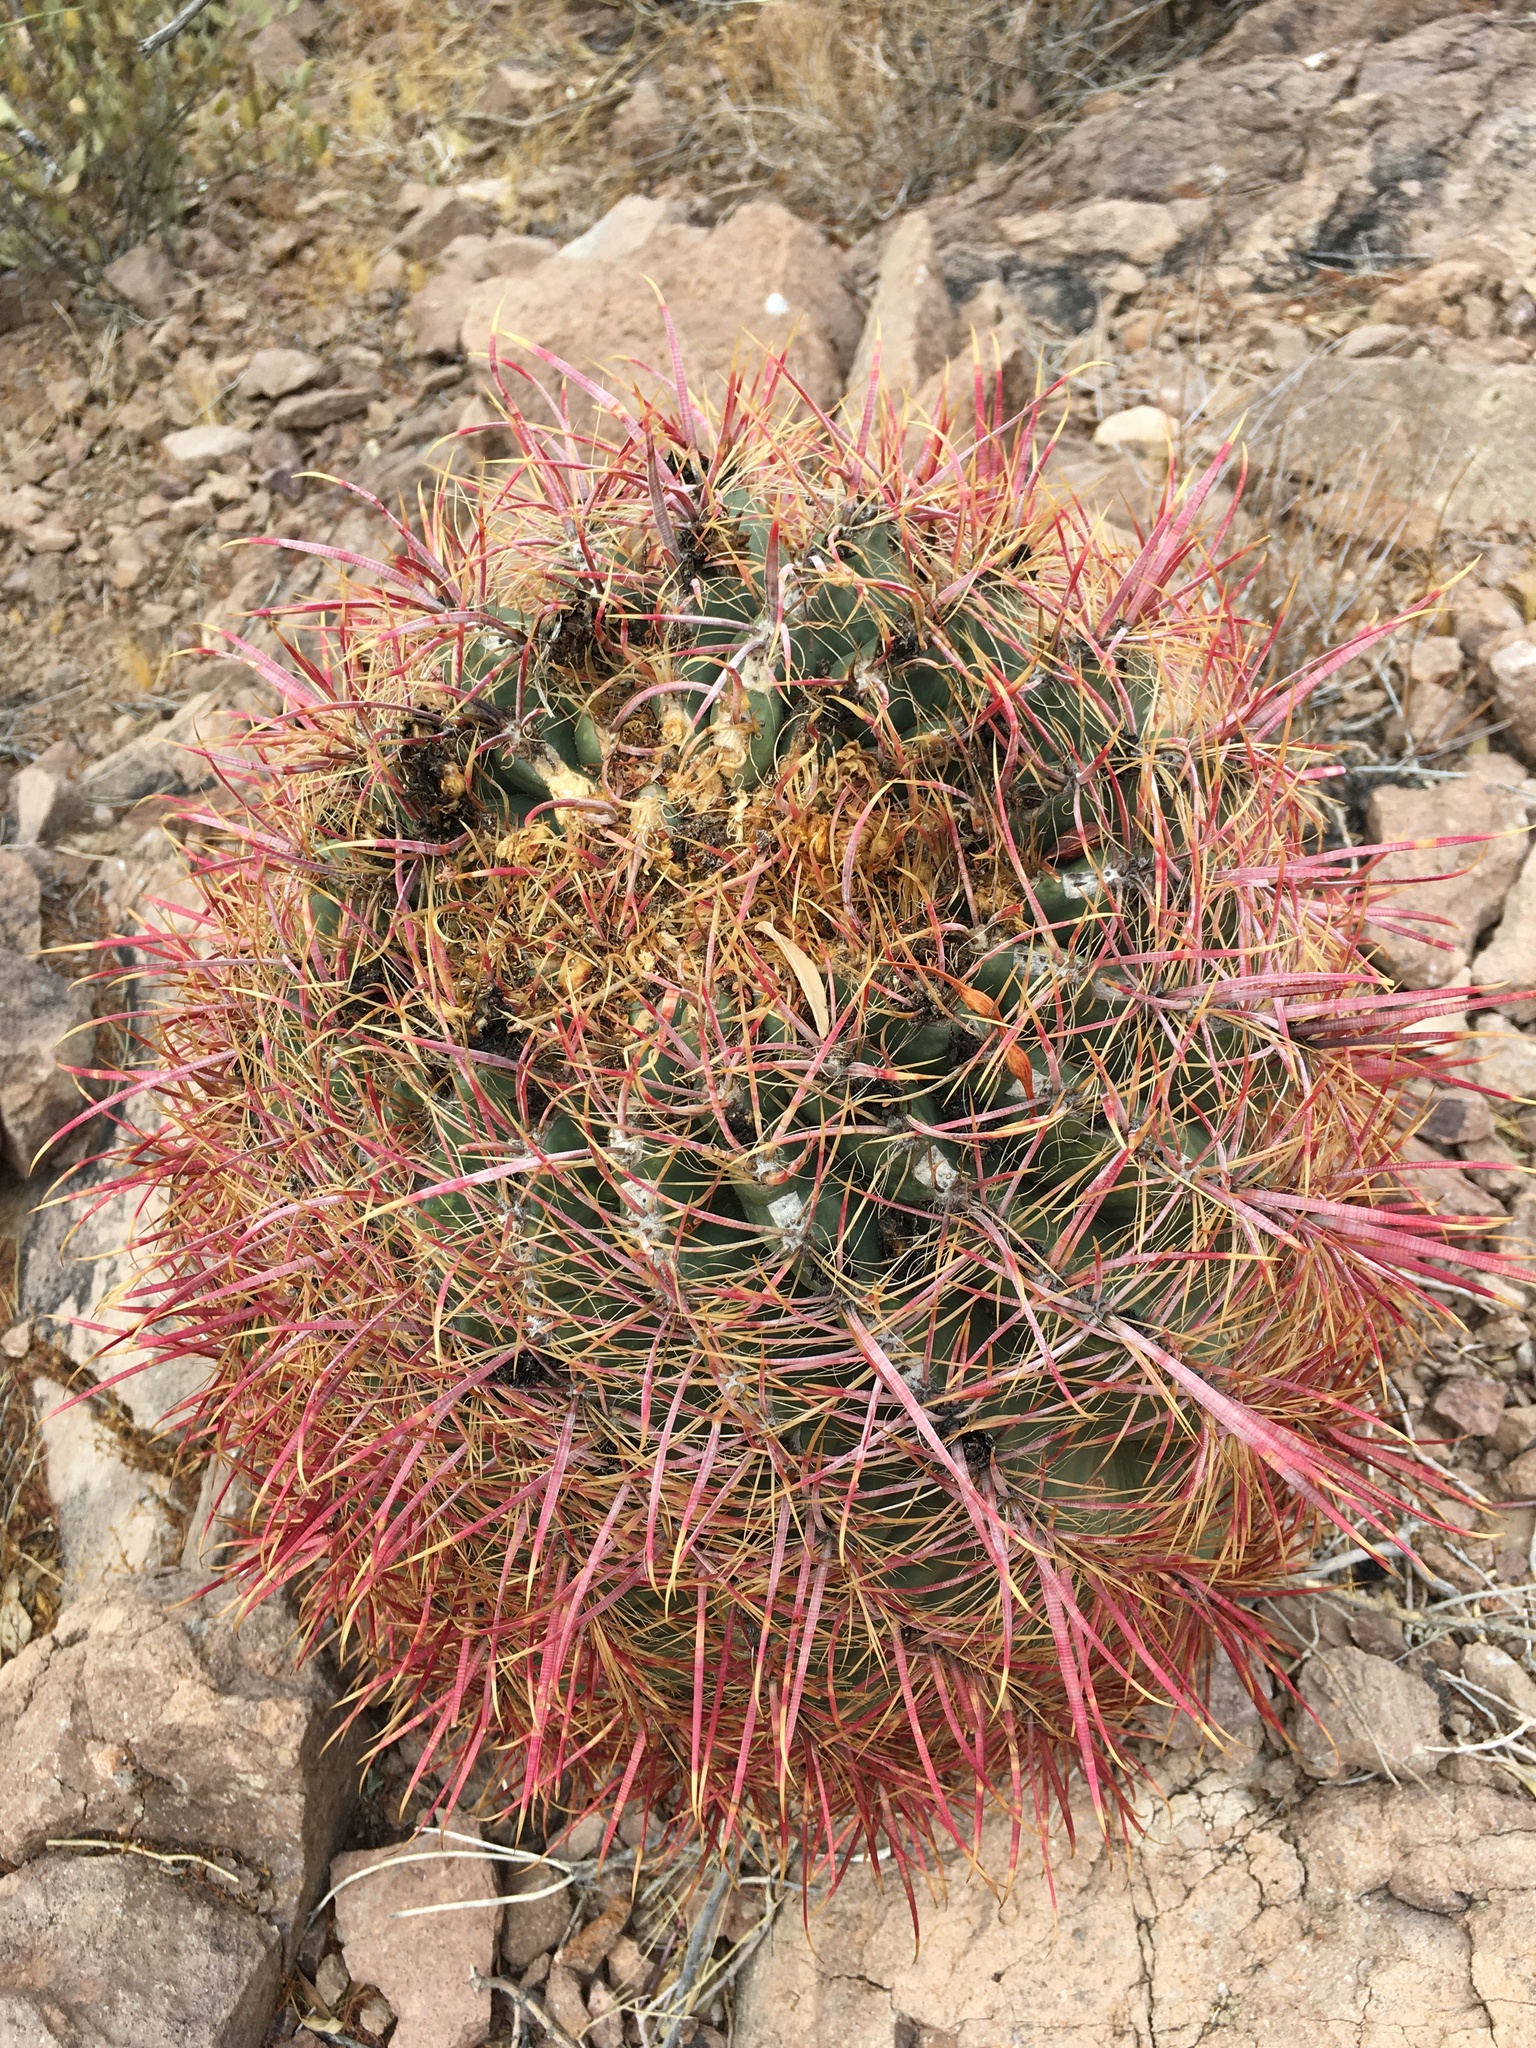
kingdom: Plantae
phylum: Tracheophyta
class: Magnoliopsida
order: Caryophyllales
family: Cactaceae
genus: Ferocactus
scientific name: Ferocactus cylindraceus
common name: California barrel cactus
